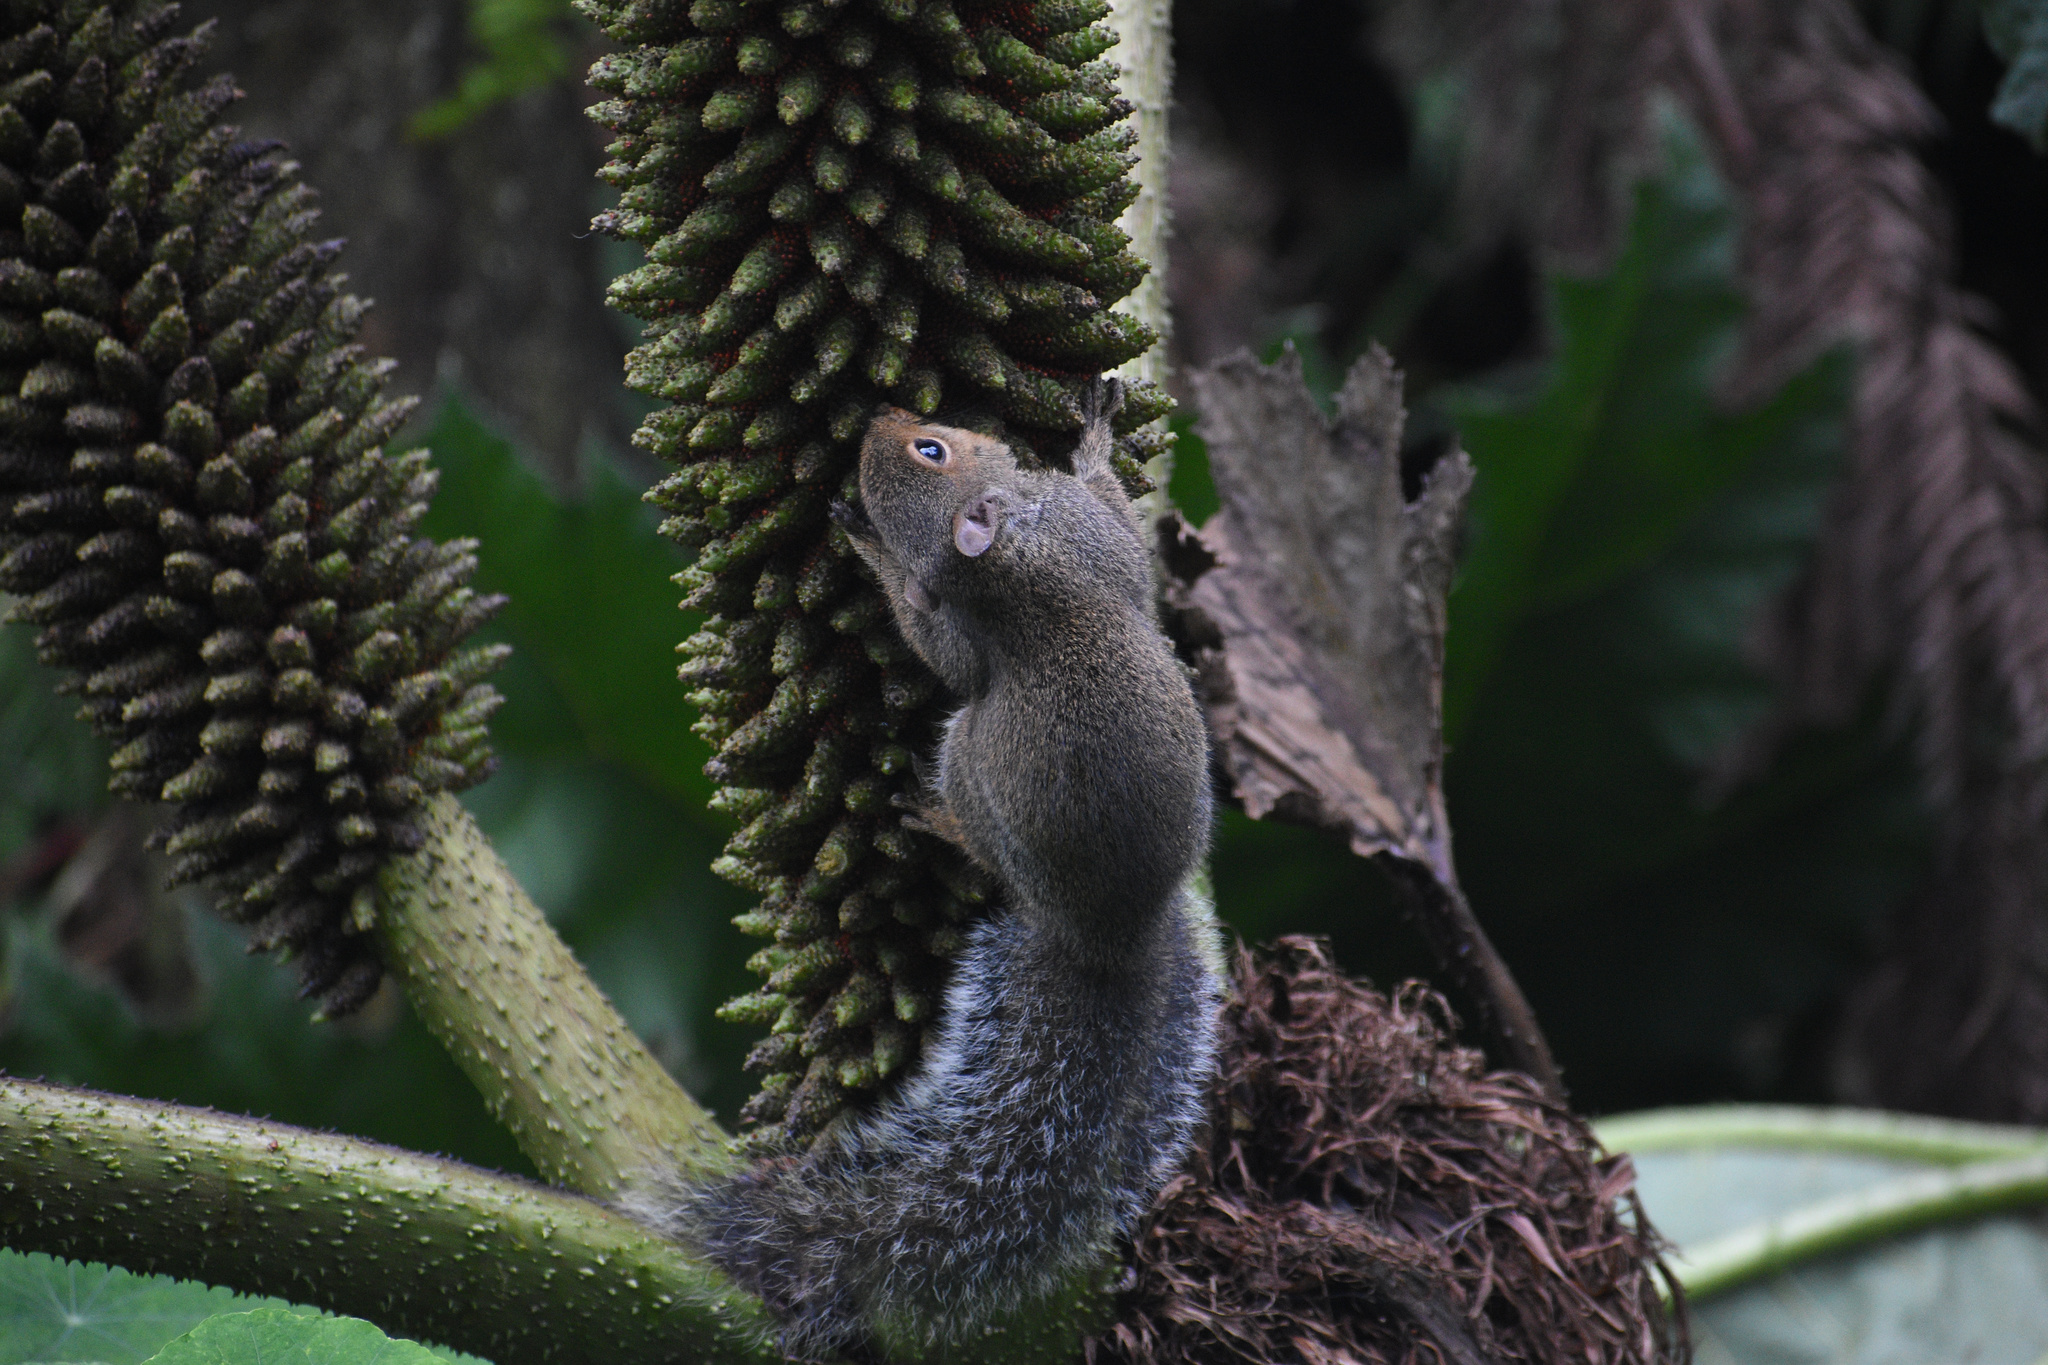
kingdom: Animalia
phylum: Chordata
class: Mammalia
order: Rodentia
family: Sciuridae
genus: Sciurus
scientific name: Sciurus carolinensis
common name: Eastern gray squirrel
